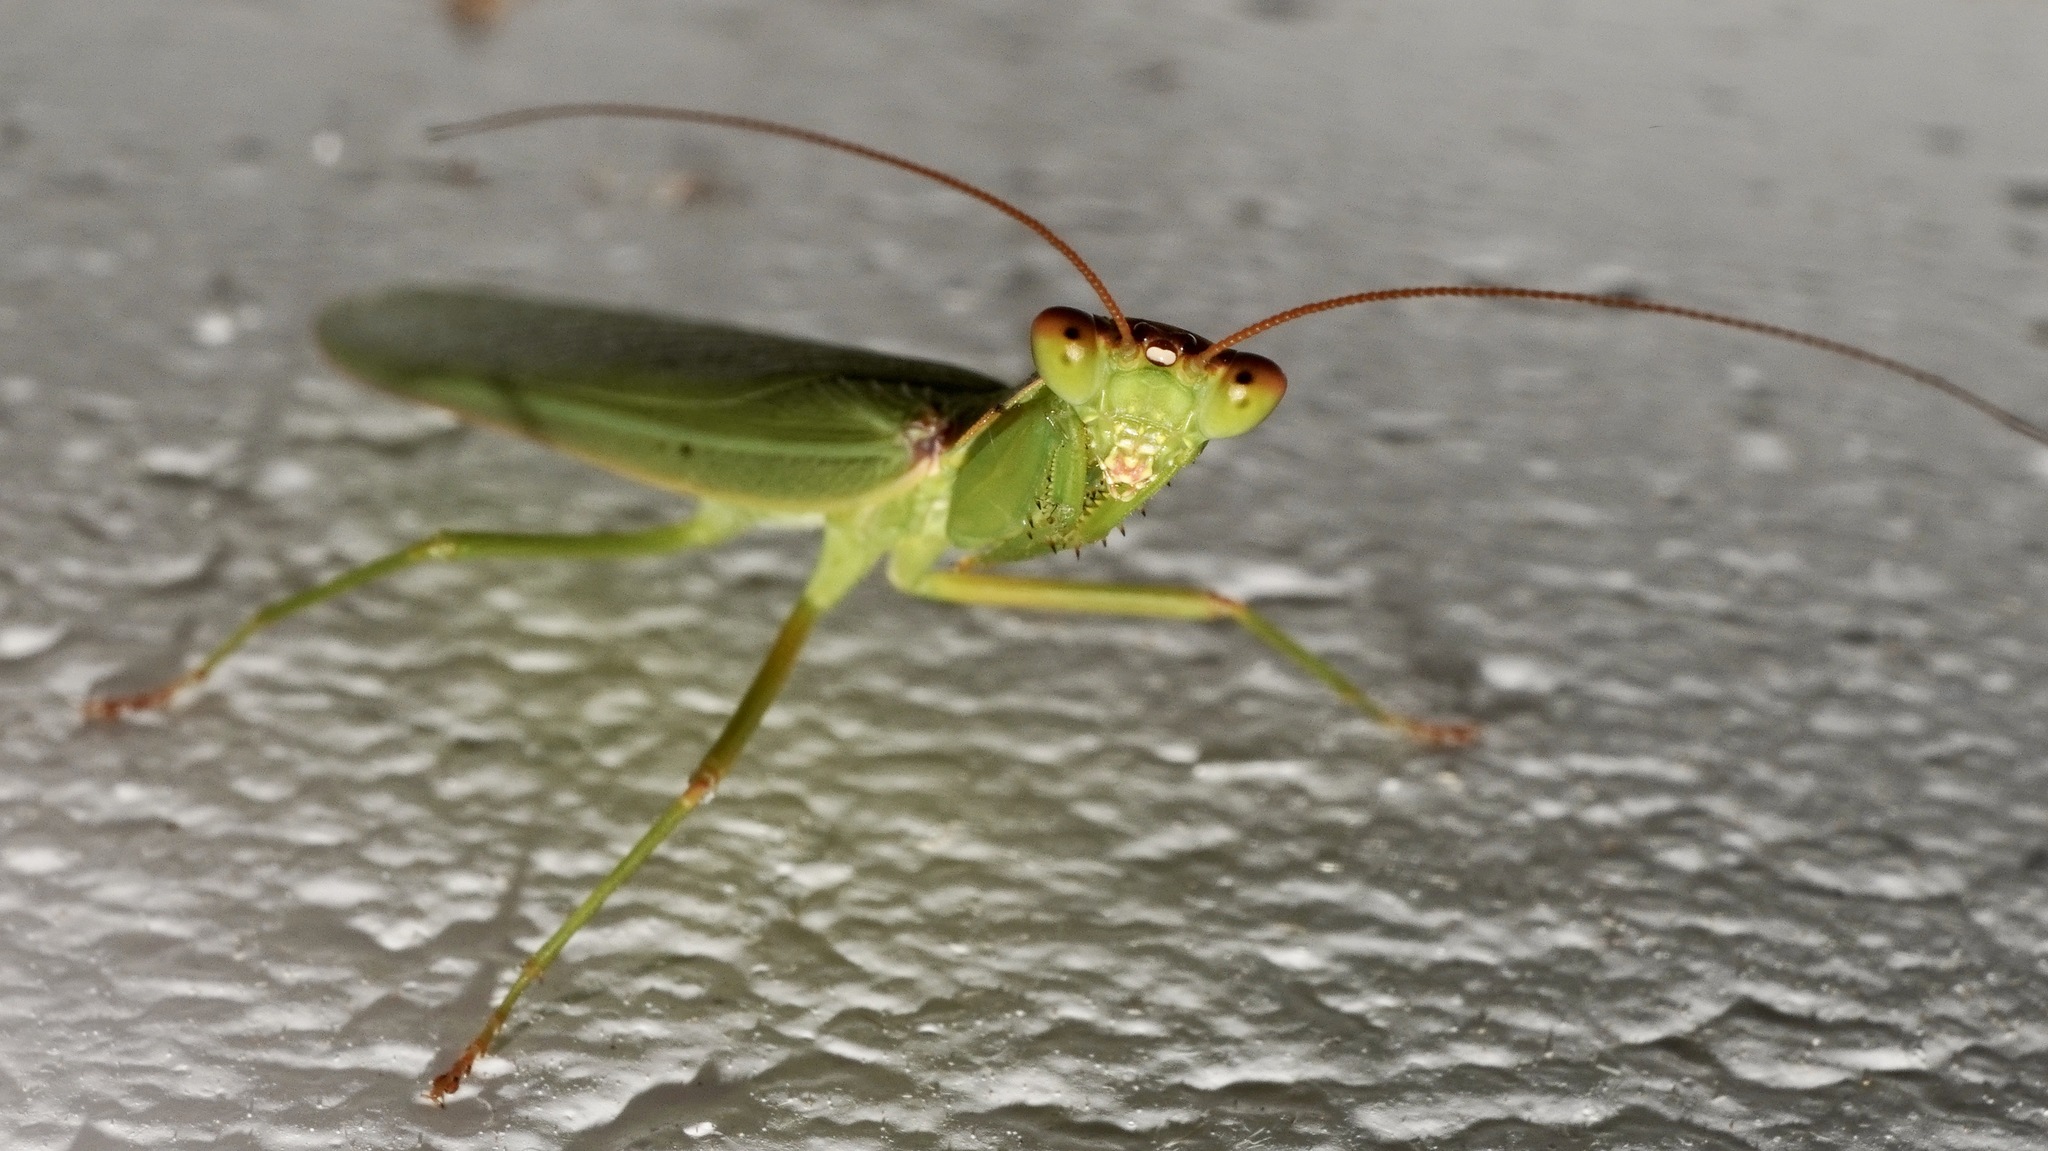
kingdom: Animalia
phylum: Arthropoda
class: Insecta
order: Mantodea
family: Mantidae
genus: Orthodera
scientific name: Orthodera novaezealandiae
